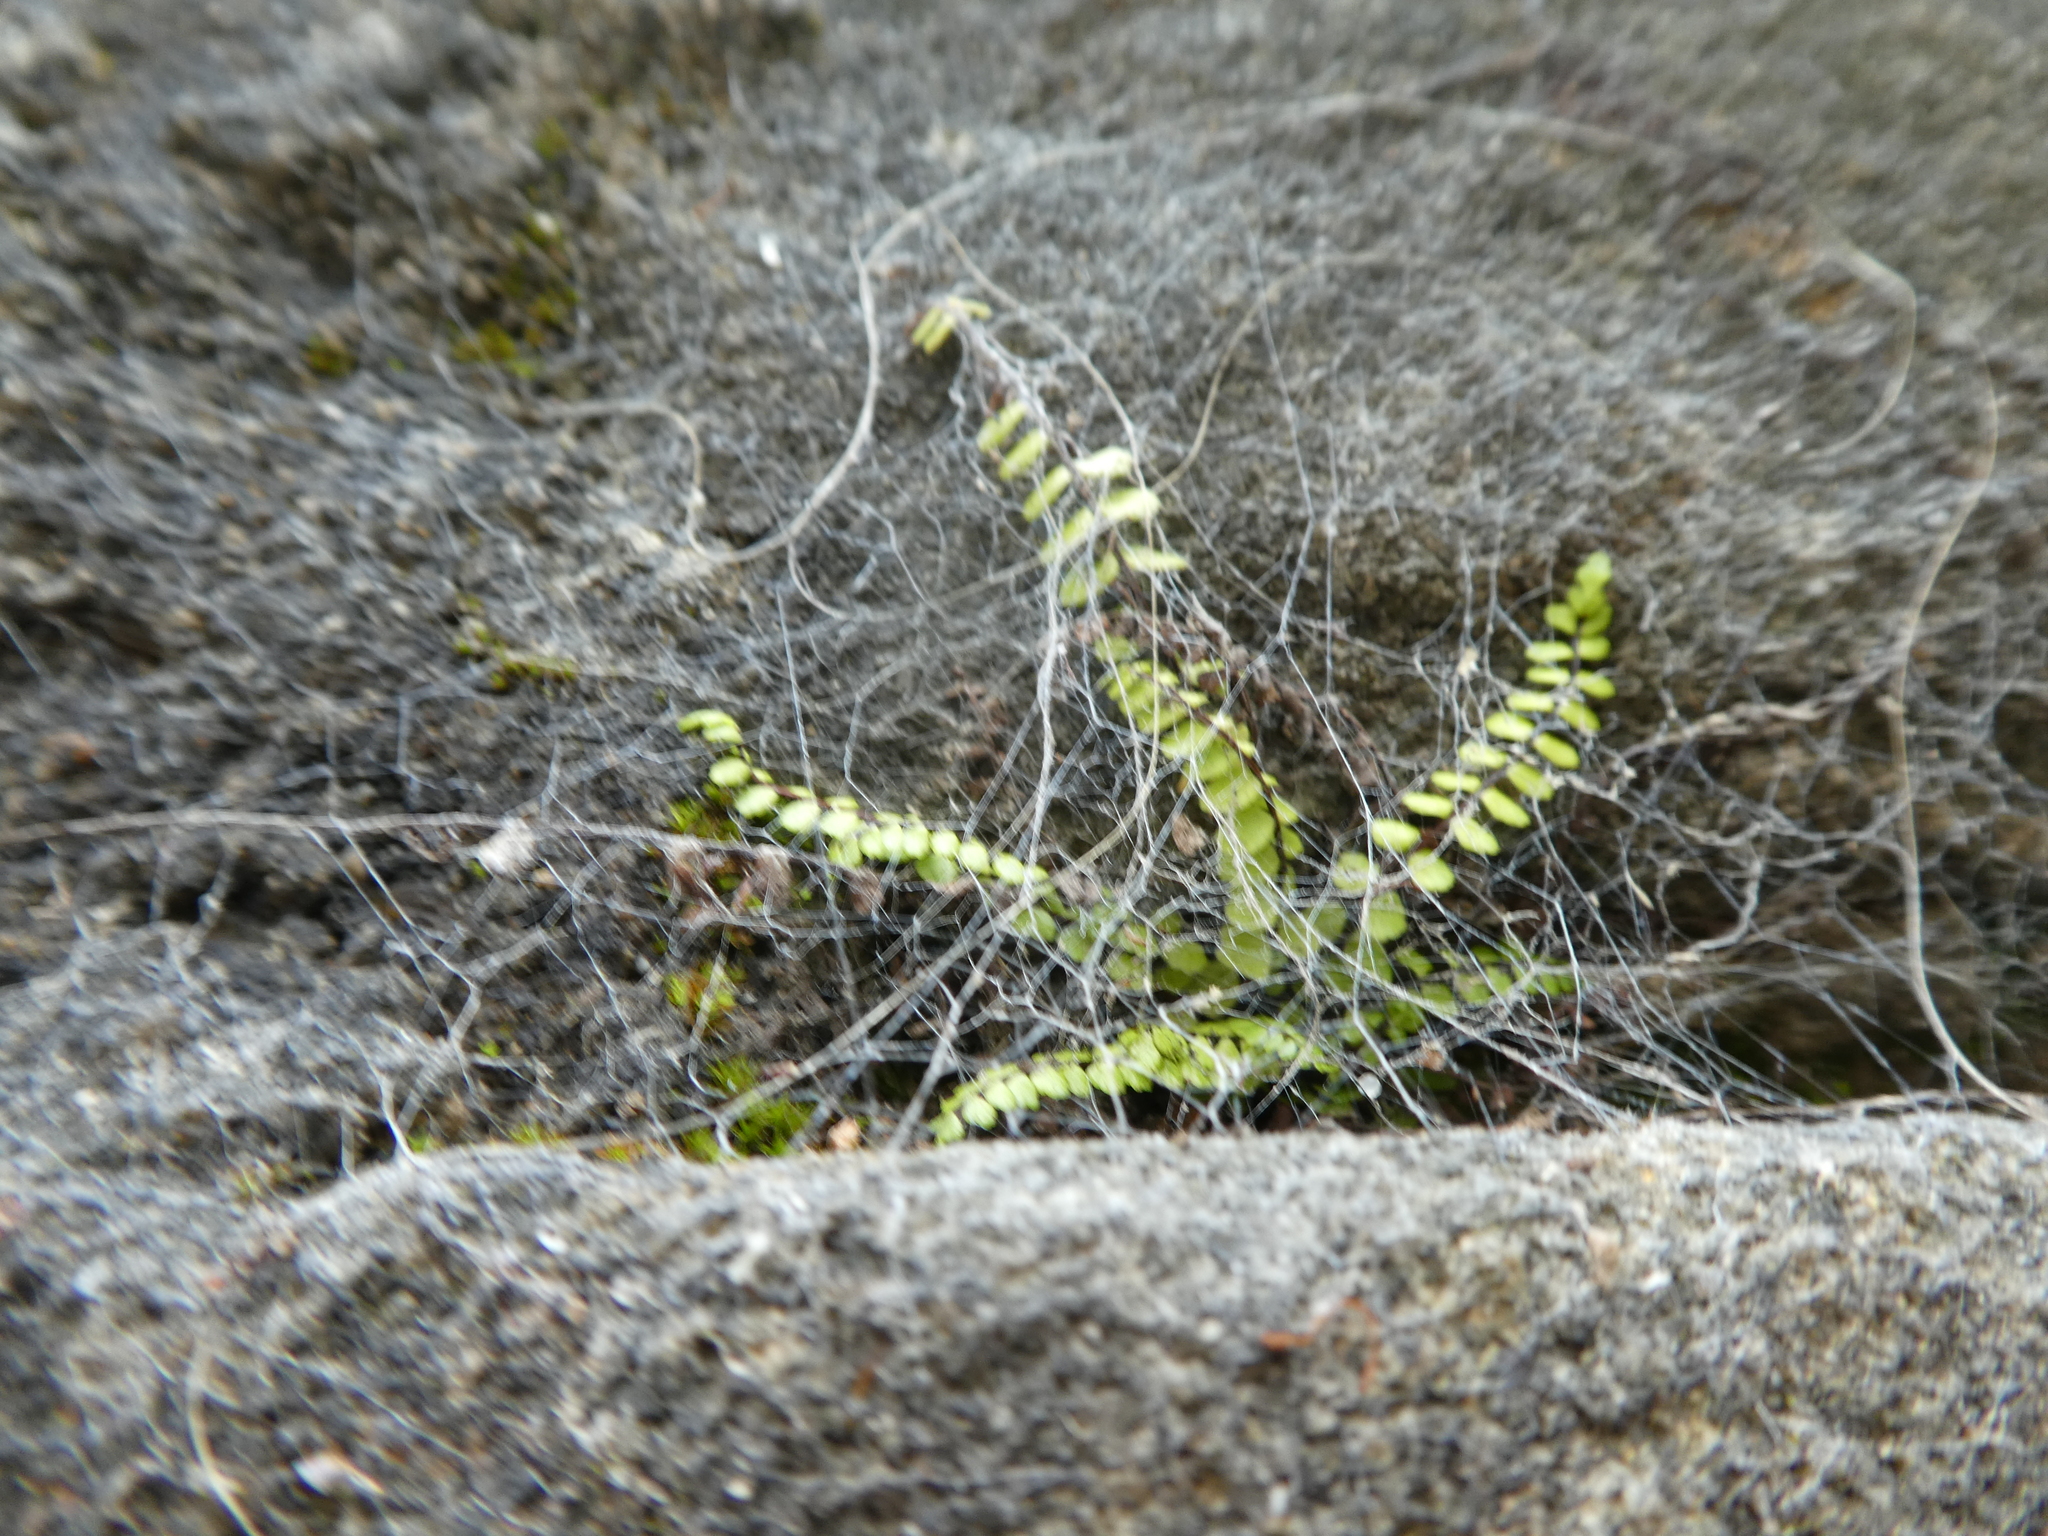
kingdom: Plantae
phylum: Tracheophyta
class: Polypodiopsida
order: Polypodiales
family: Aspleniaceae
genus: Asplenium
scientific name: Asplenium trichomanes
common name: Maidenhair spleenwort
